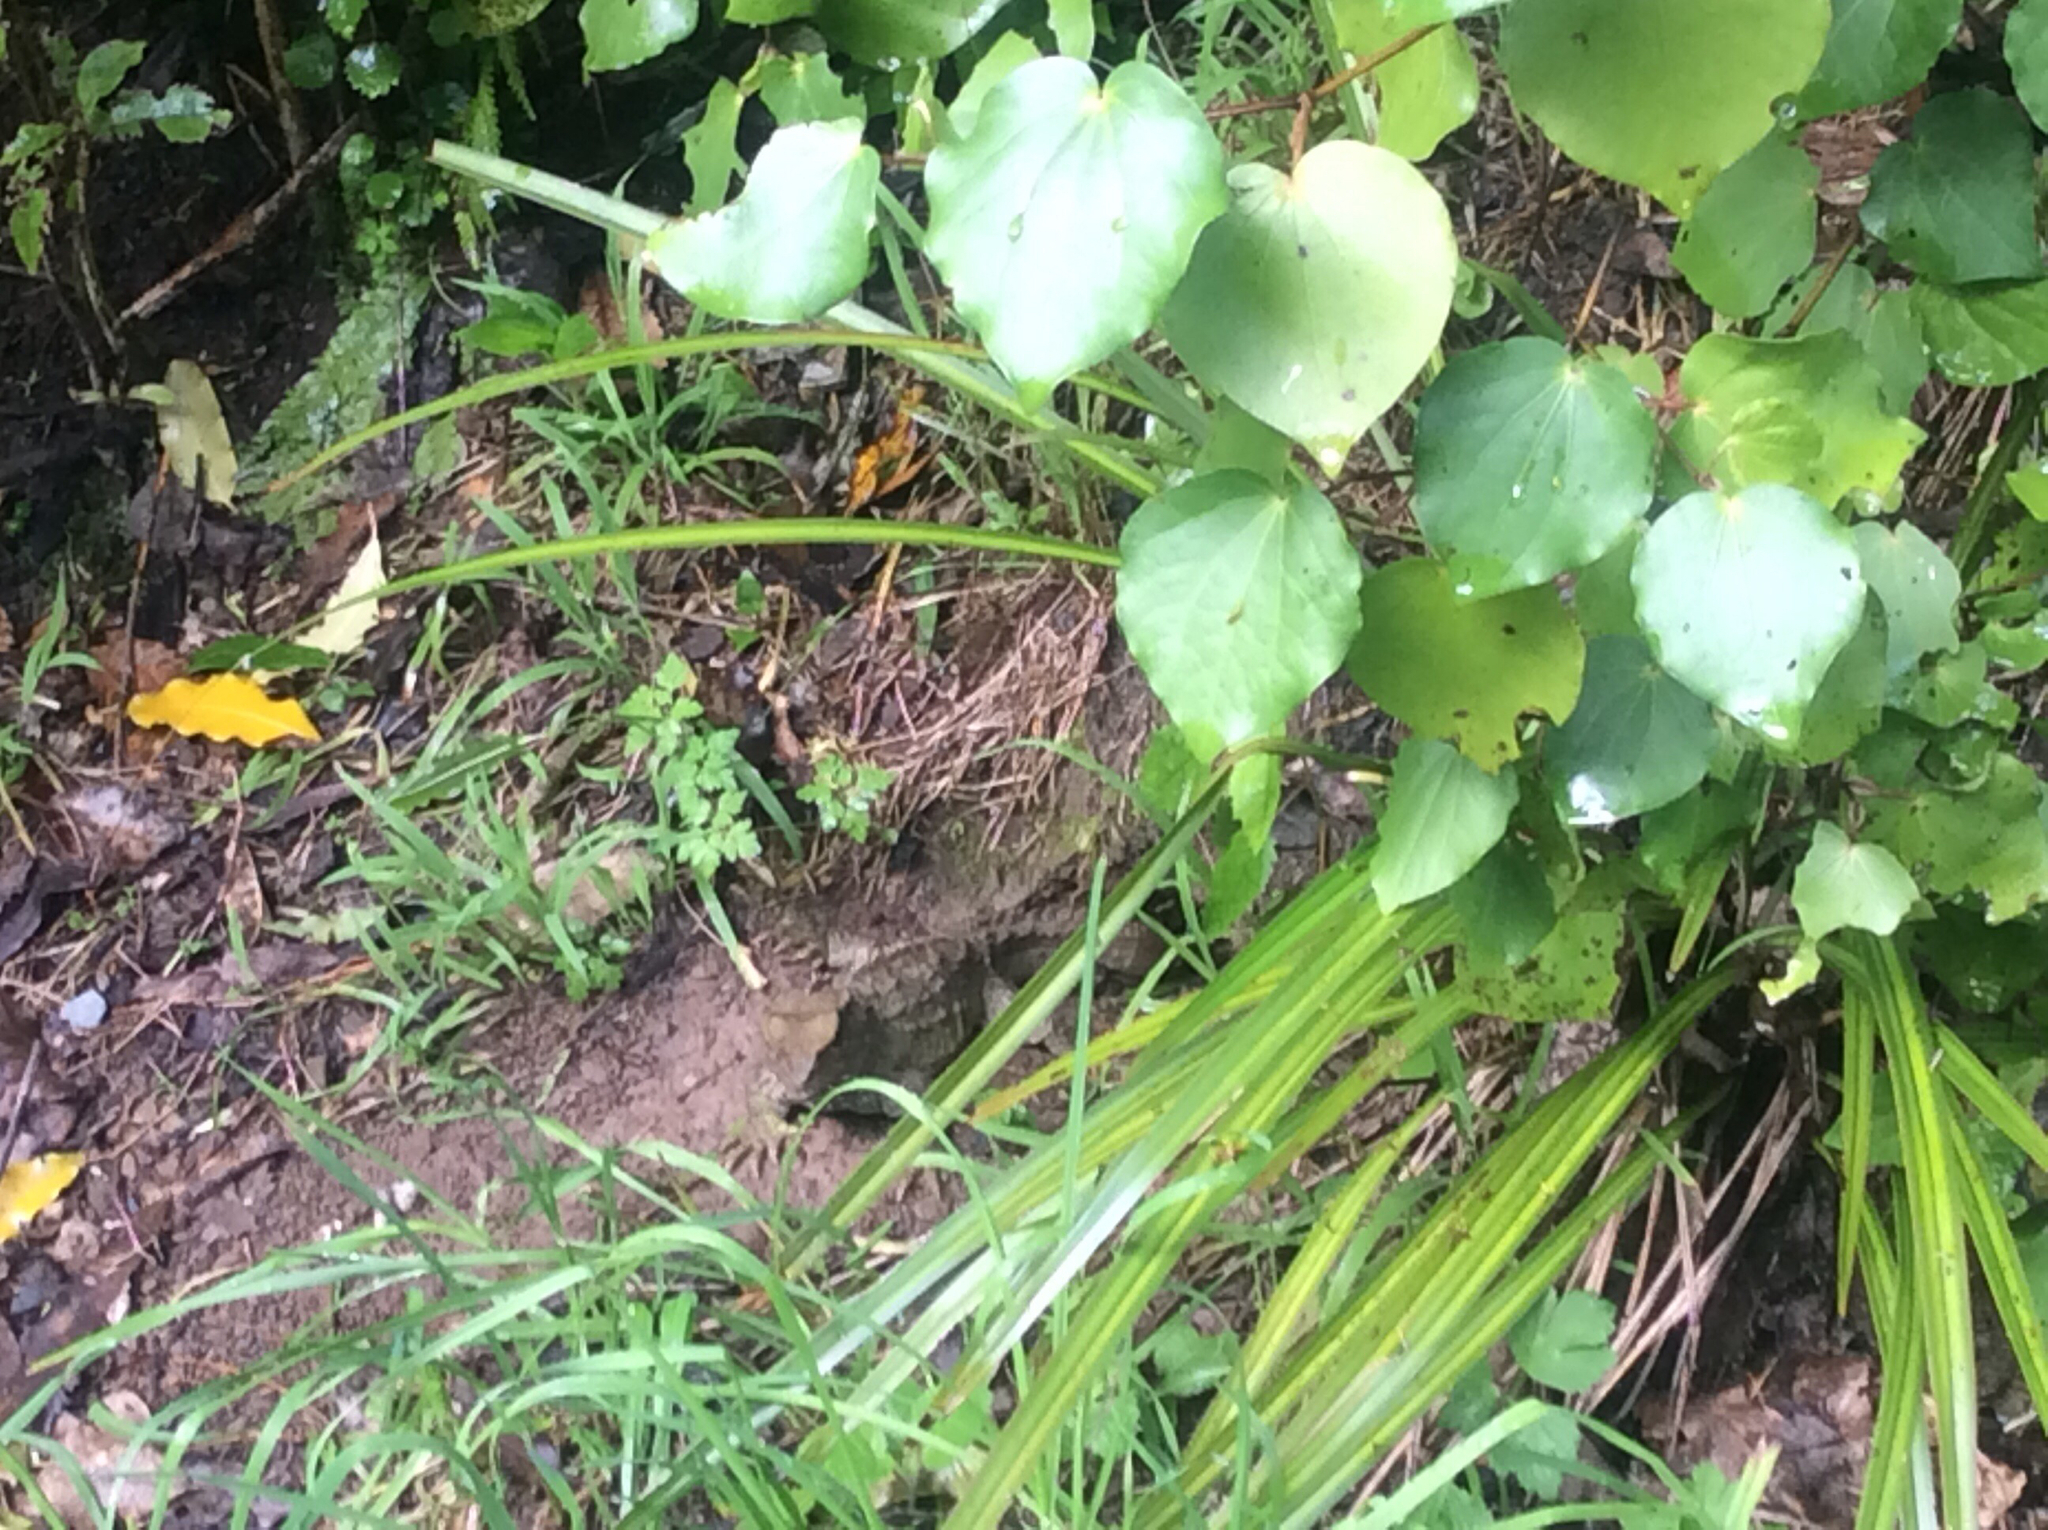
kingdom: Animalia
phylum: Chordata
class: Sphenodontia
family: Sphenodontidae
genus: Sphenodon
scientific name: Sphenodon punctatus
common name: Tuatara
